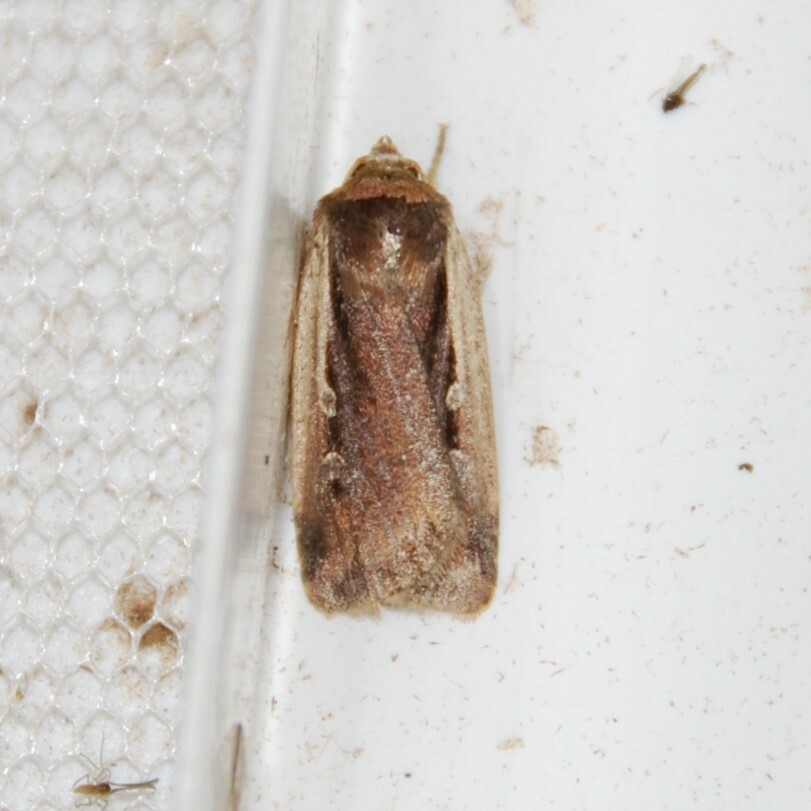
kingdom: Animalia
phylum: Arthropoda
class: Insecta
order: Lepidoptera
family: Noctuidae
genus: Ochropleura
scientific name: Ochropleura plecta
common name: Flame shoulder
